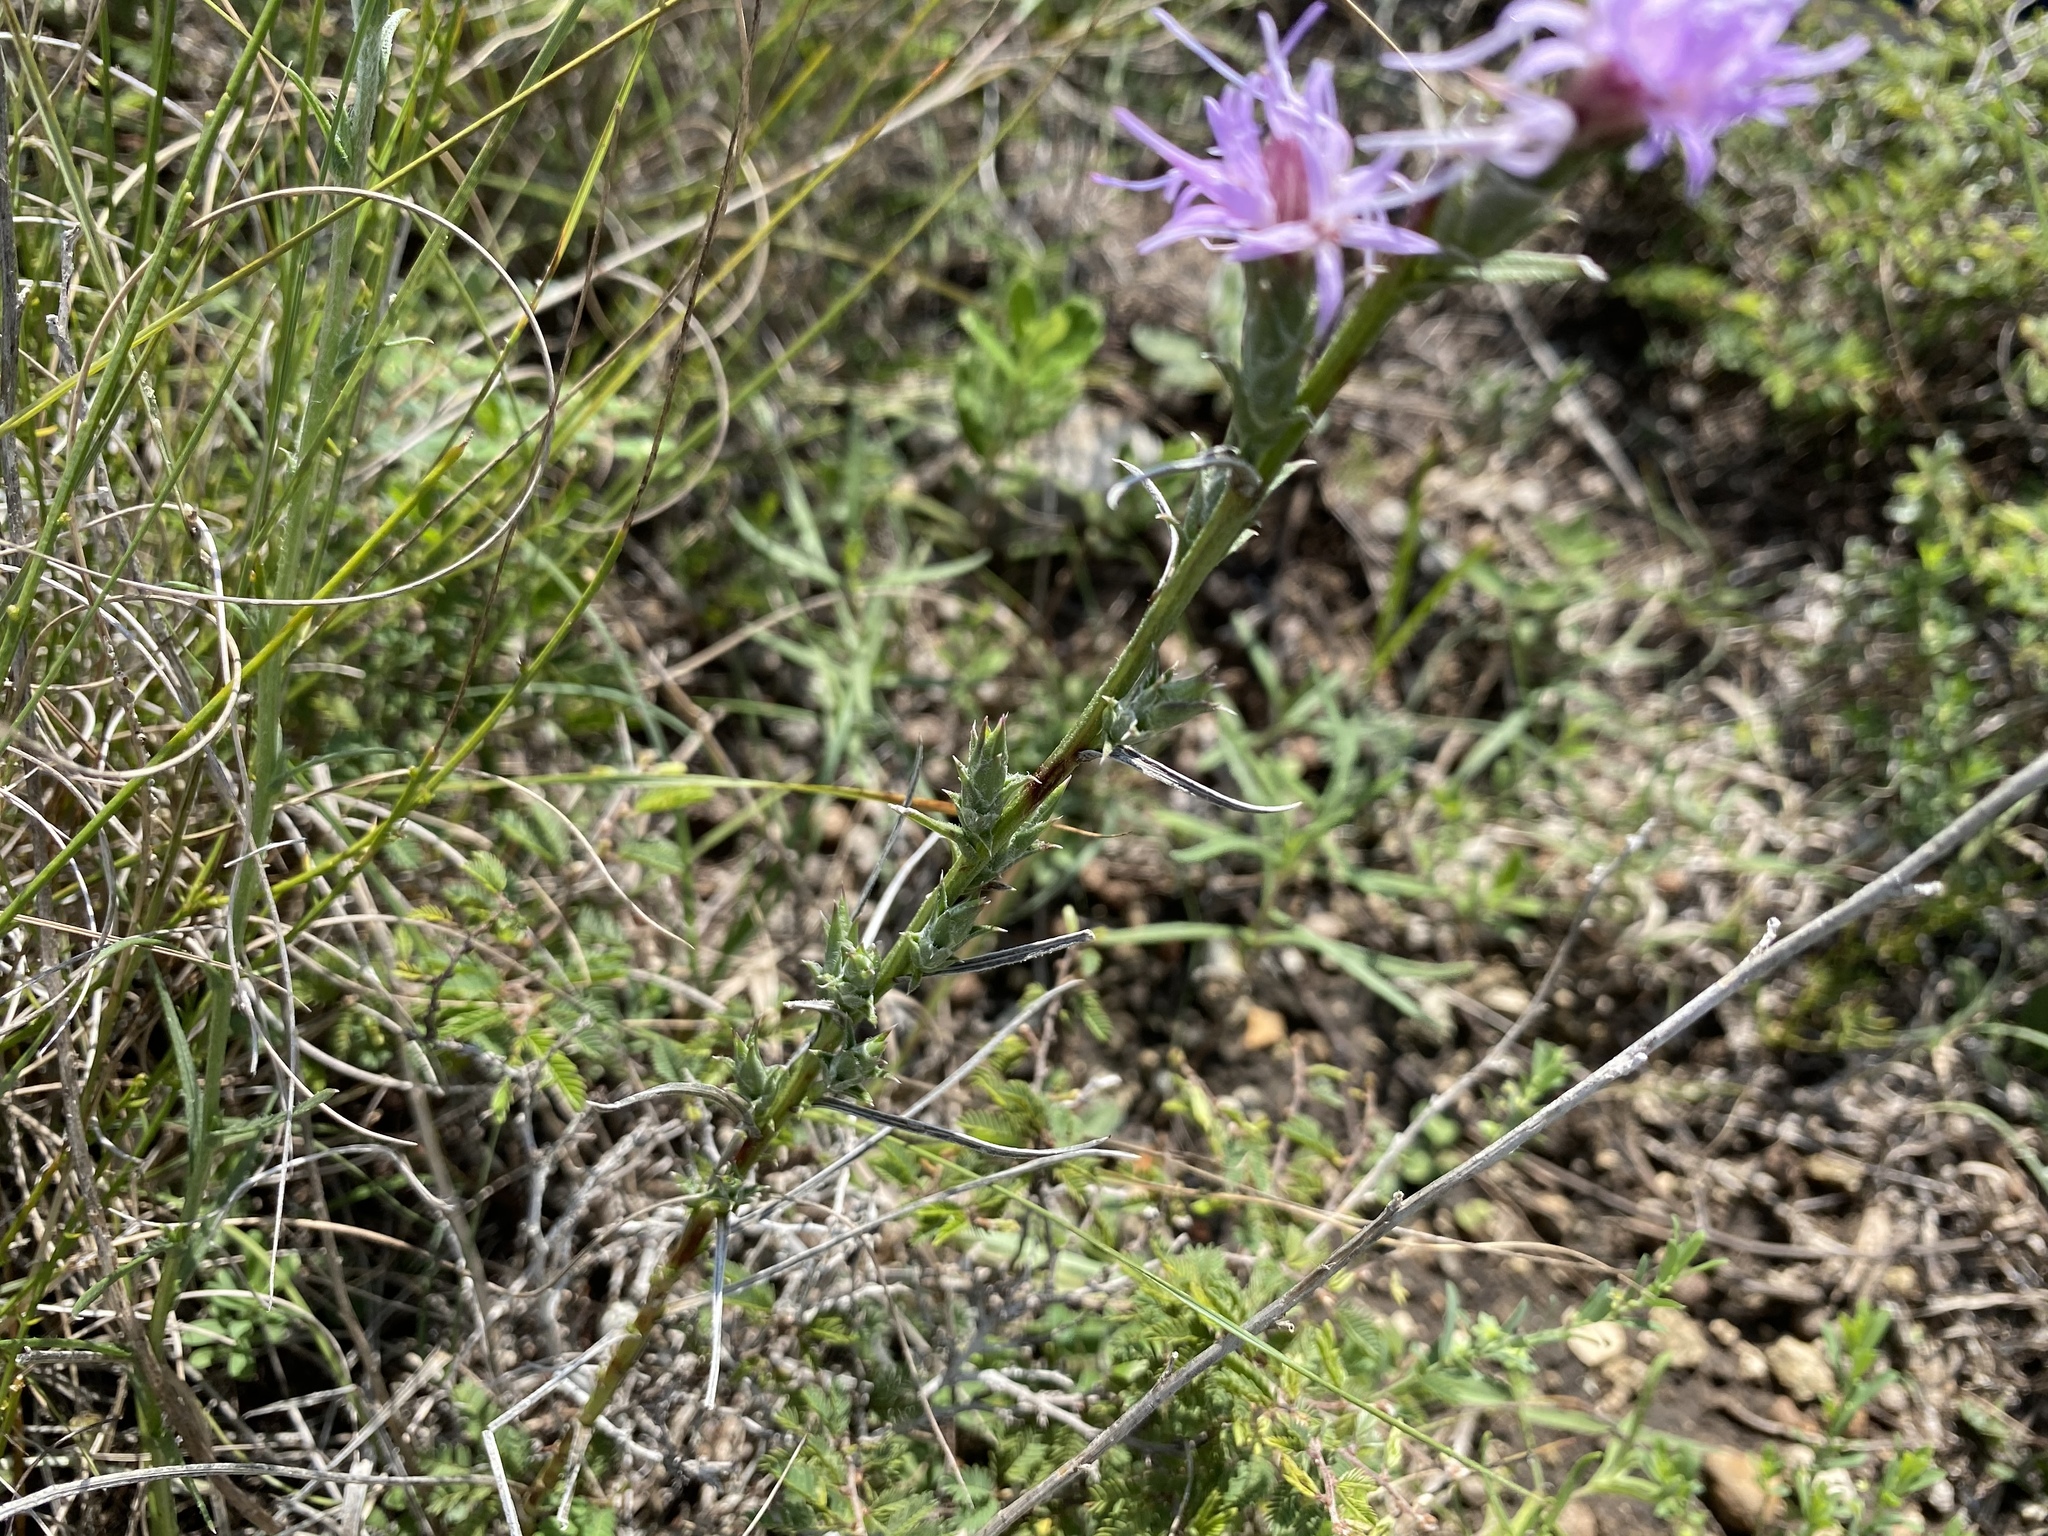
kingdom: Plantae
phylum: Tracheophyta
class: Magnoliopsida
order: Asterales
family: Asteraceae
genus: Liatris
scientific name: Liatris punctata
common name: Dotted gayfeather
